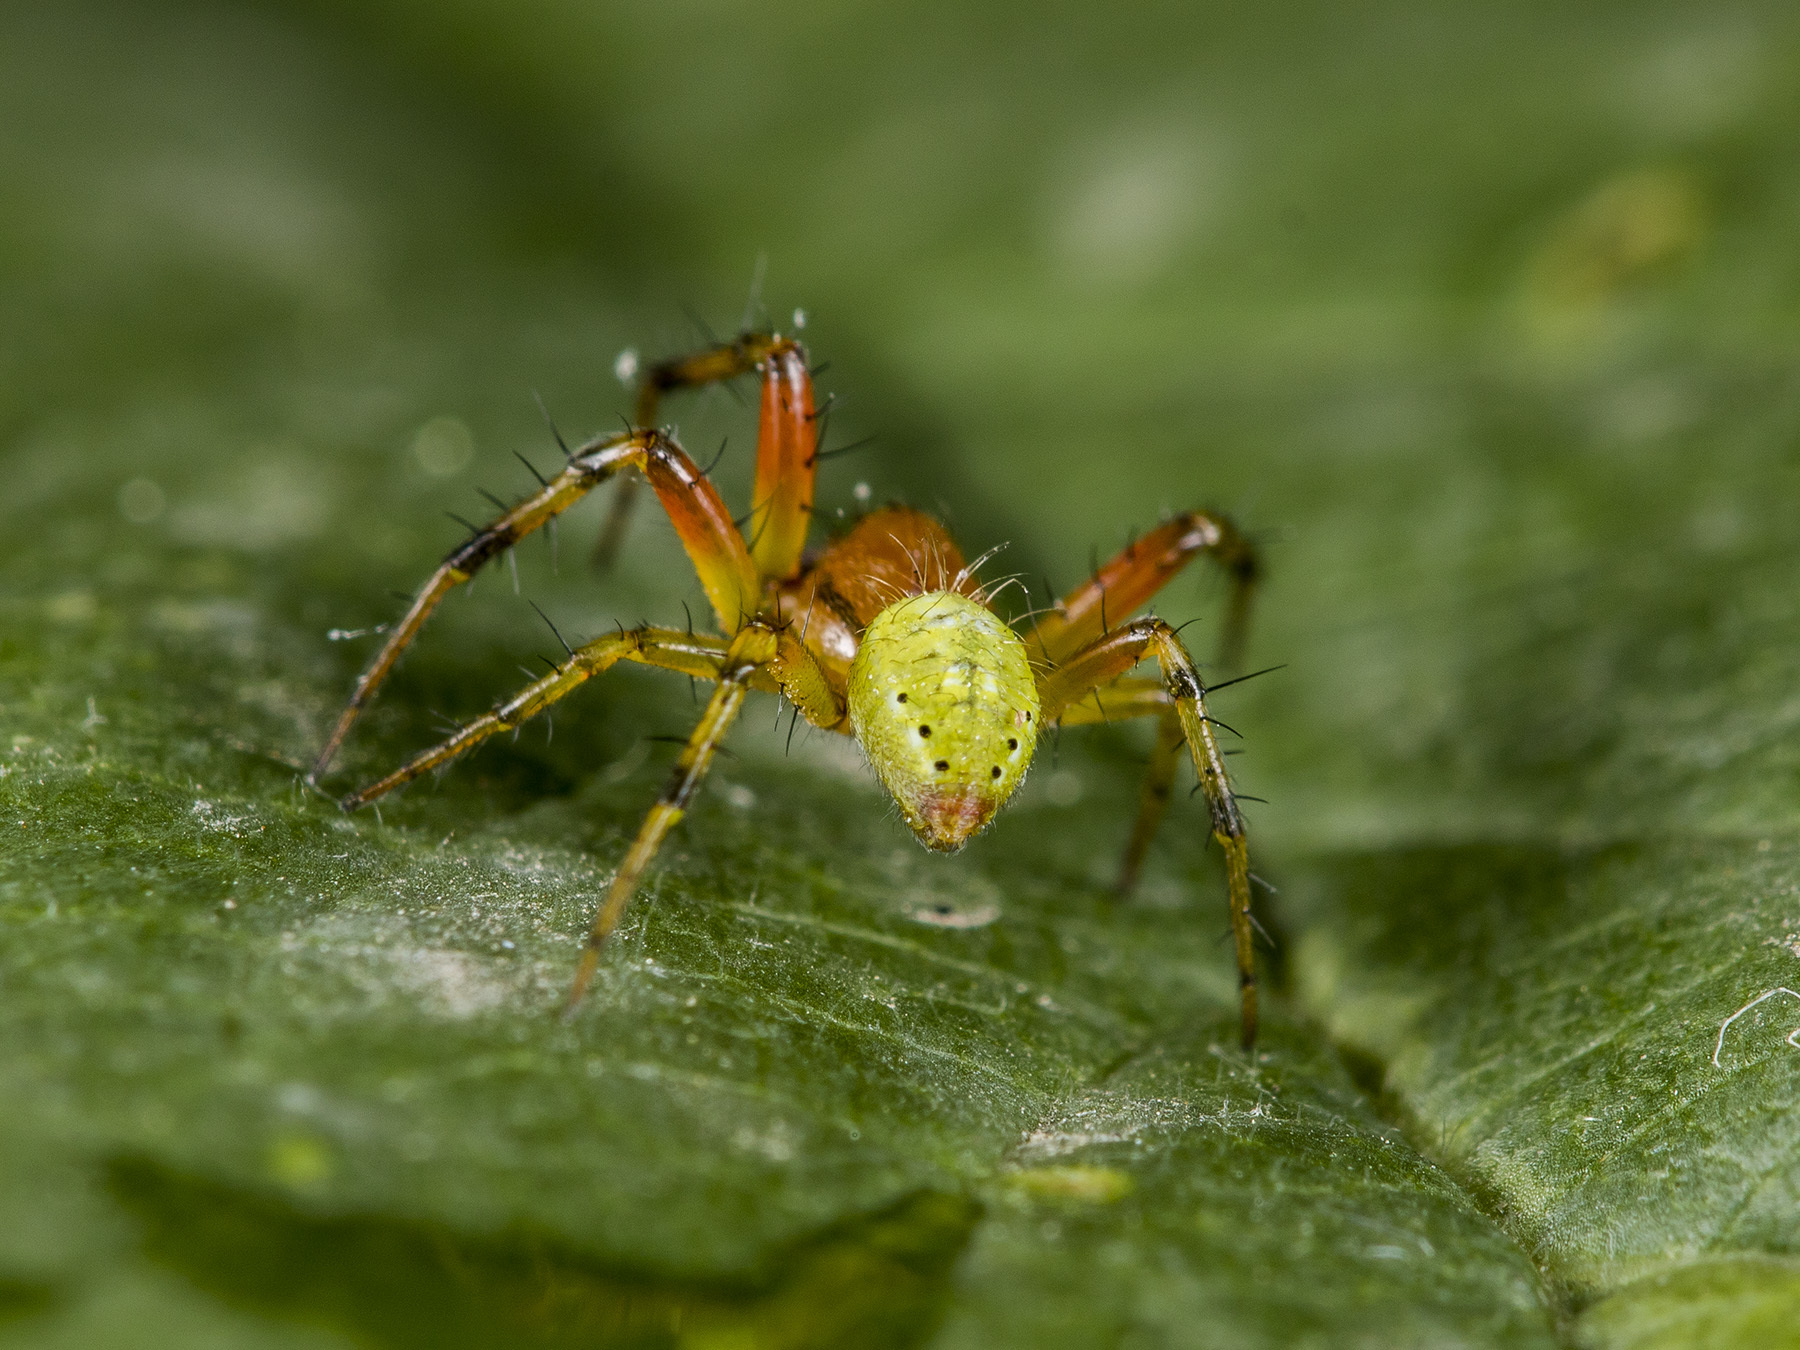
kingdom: Animalia
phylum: Arthropoda
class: Arachnida
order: Araneae
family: Araneidae
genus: Araniella
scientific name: Araniella villanii
